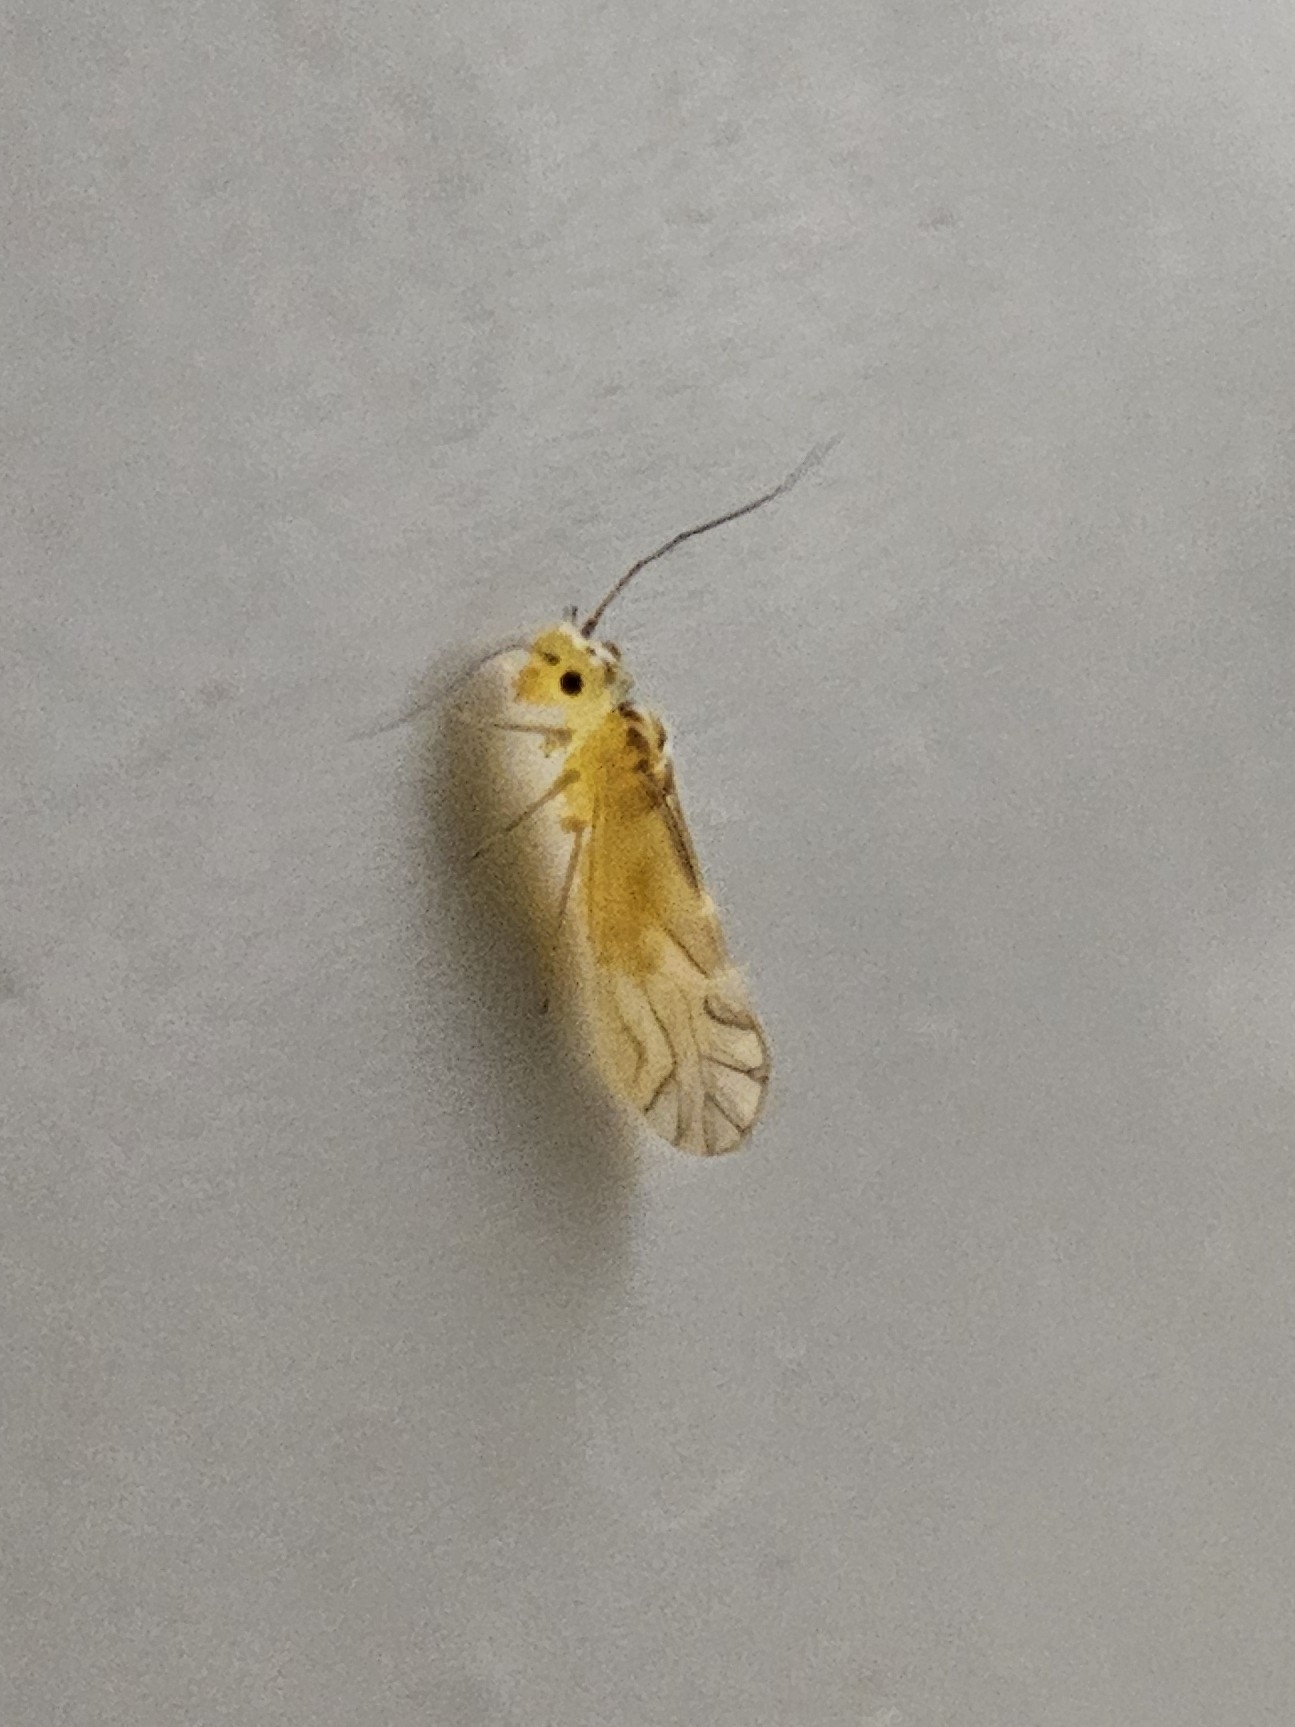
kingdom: Animalia
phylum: Arthropoda
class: Insecta
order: Psocodea
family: Caeciliusidae
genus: Valenzuela
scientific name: Valenzuela flavidus
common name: Yellow barklouse
